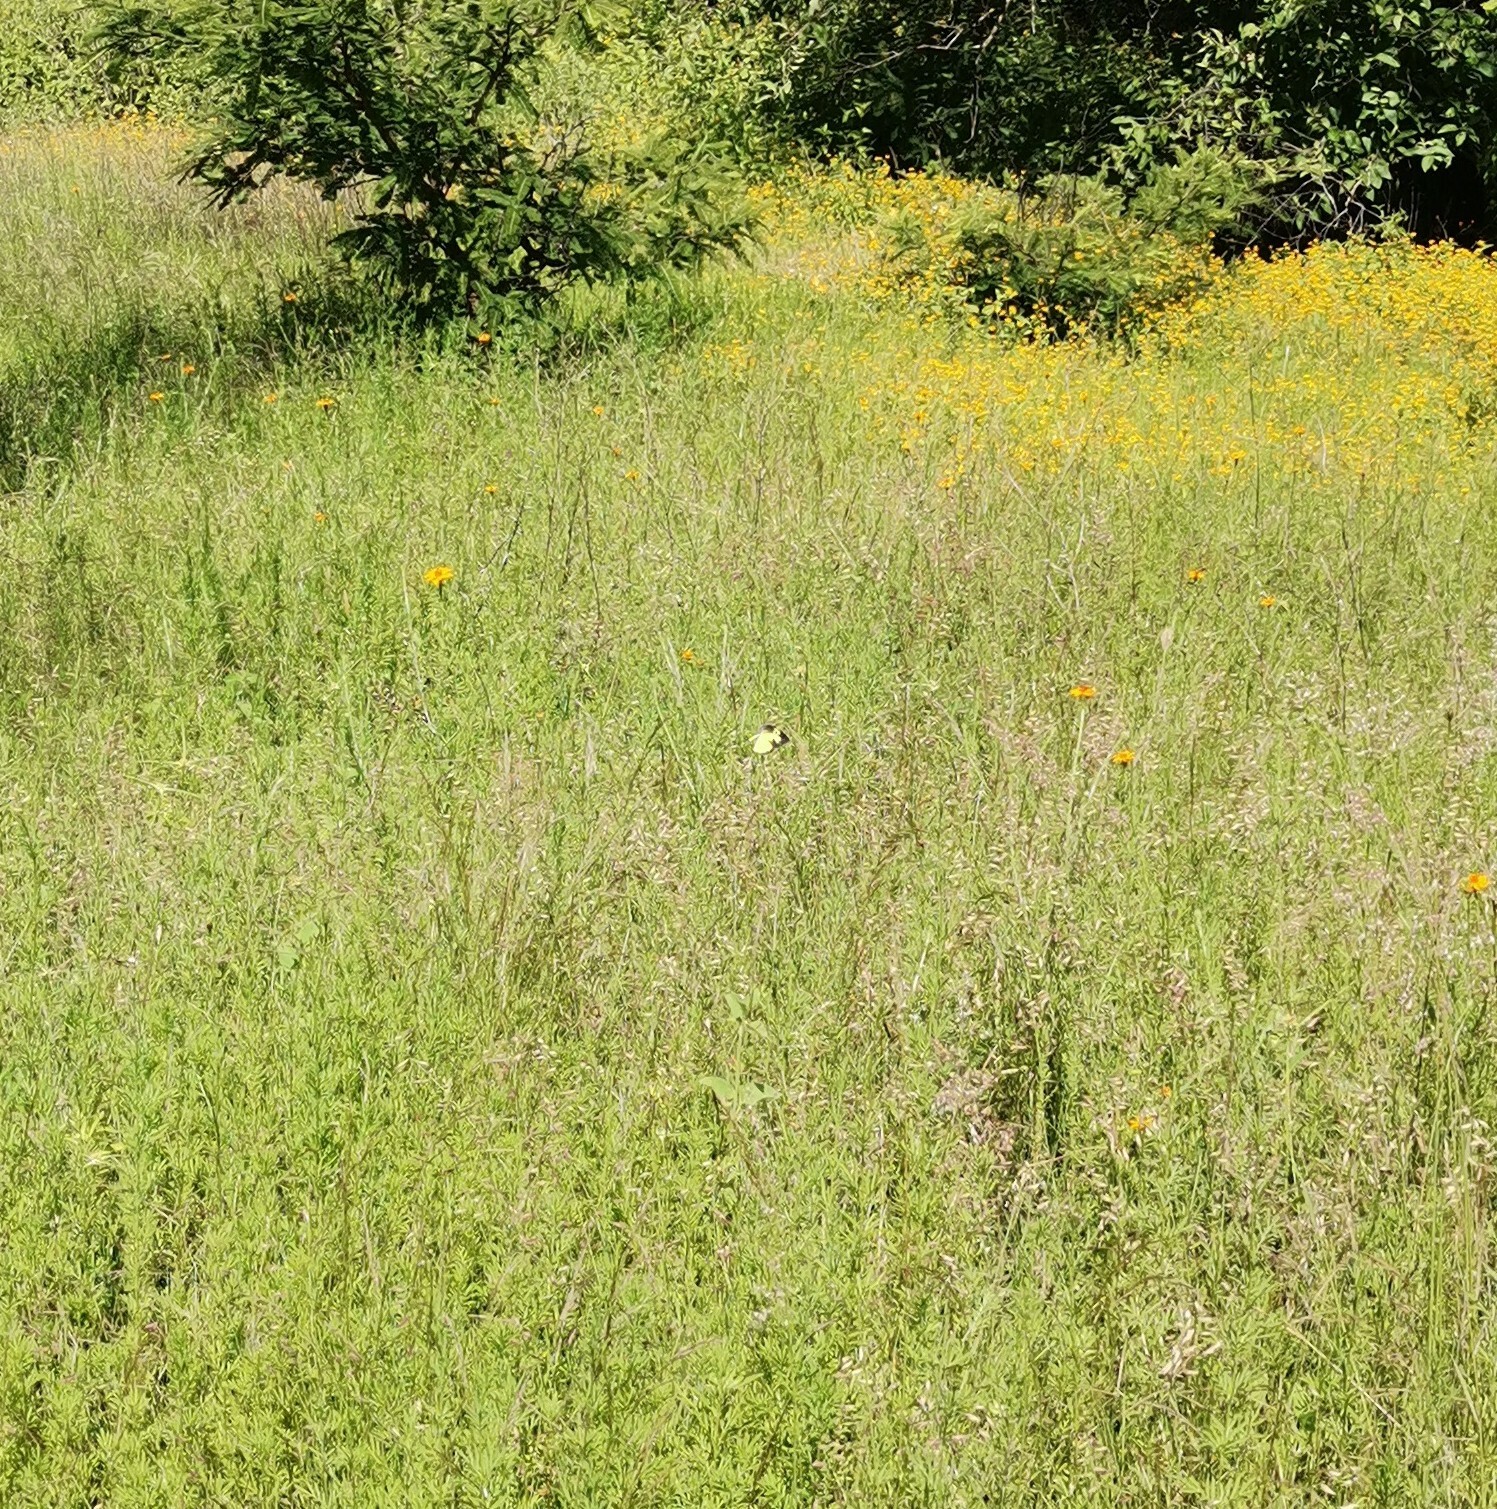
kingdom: Animalia
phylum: Arthropoda
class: Insecta
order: Lepidoptera
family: Pieridae
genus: Zerene
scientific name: Zerene cesonia
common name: Southern dogface
